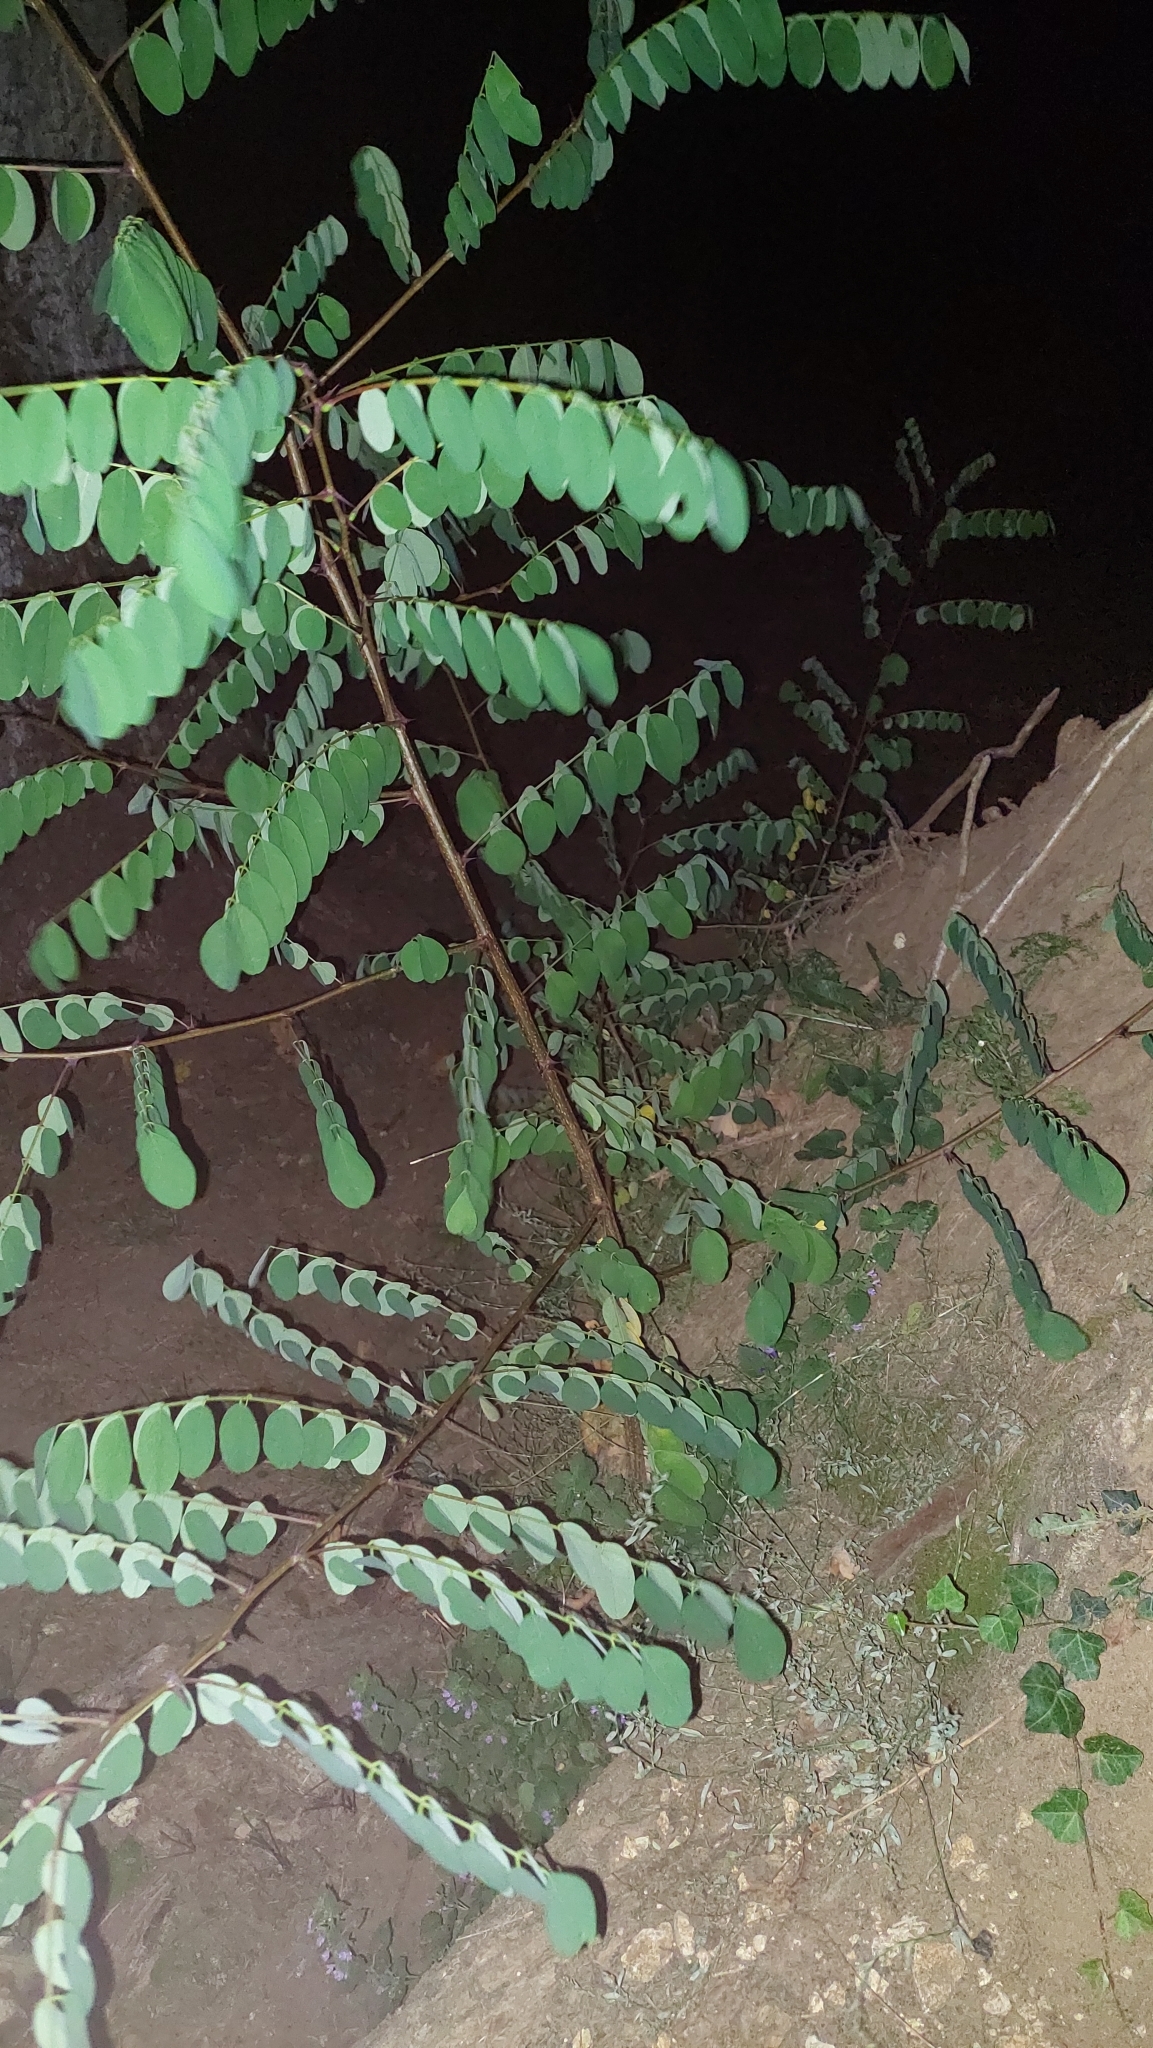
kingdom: Plantae
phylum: Tracheophyta
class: Magnoliopsida
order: Fabales
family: Fabaceae
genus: Robinia
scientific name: Robinia pseudoacacia
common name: Black locust
